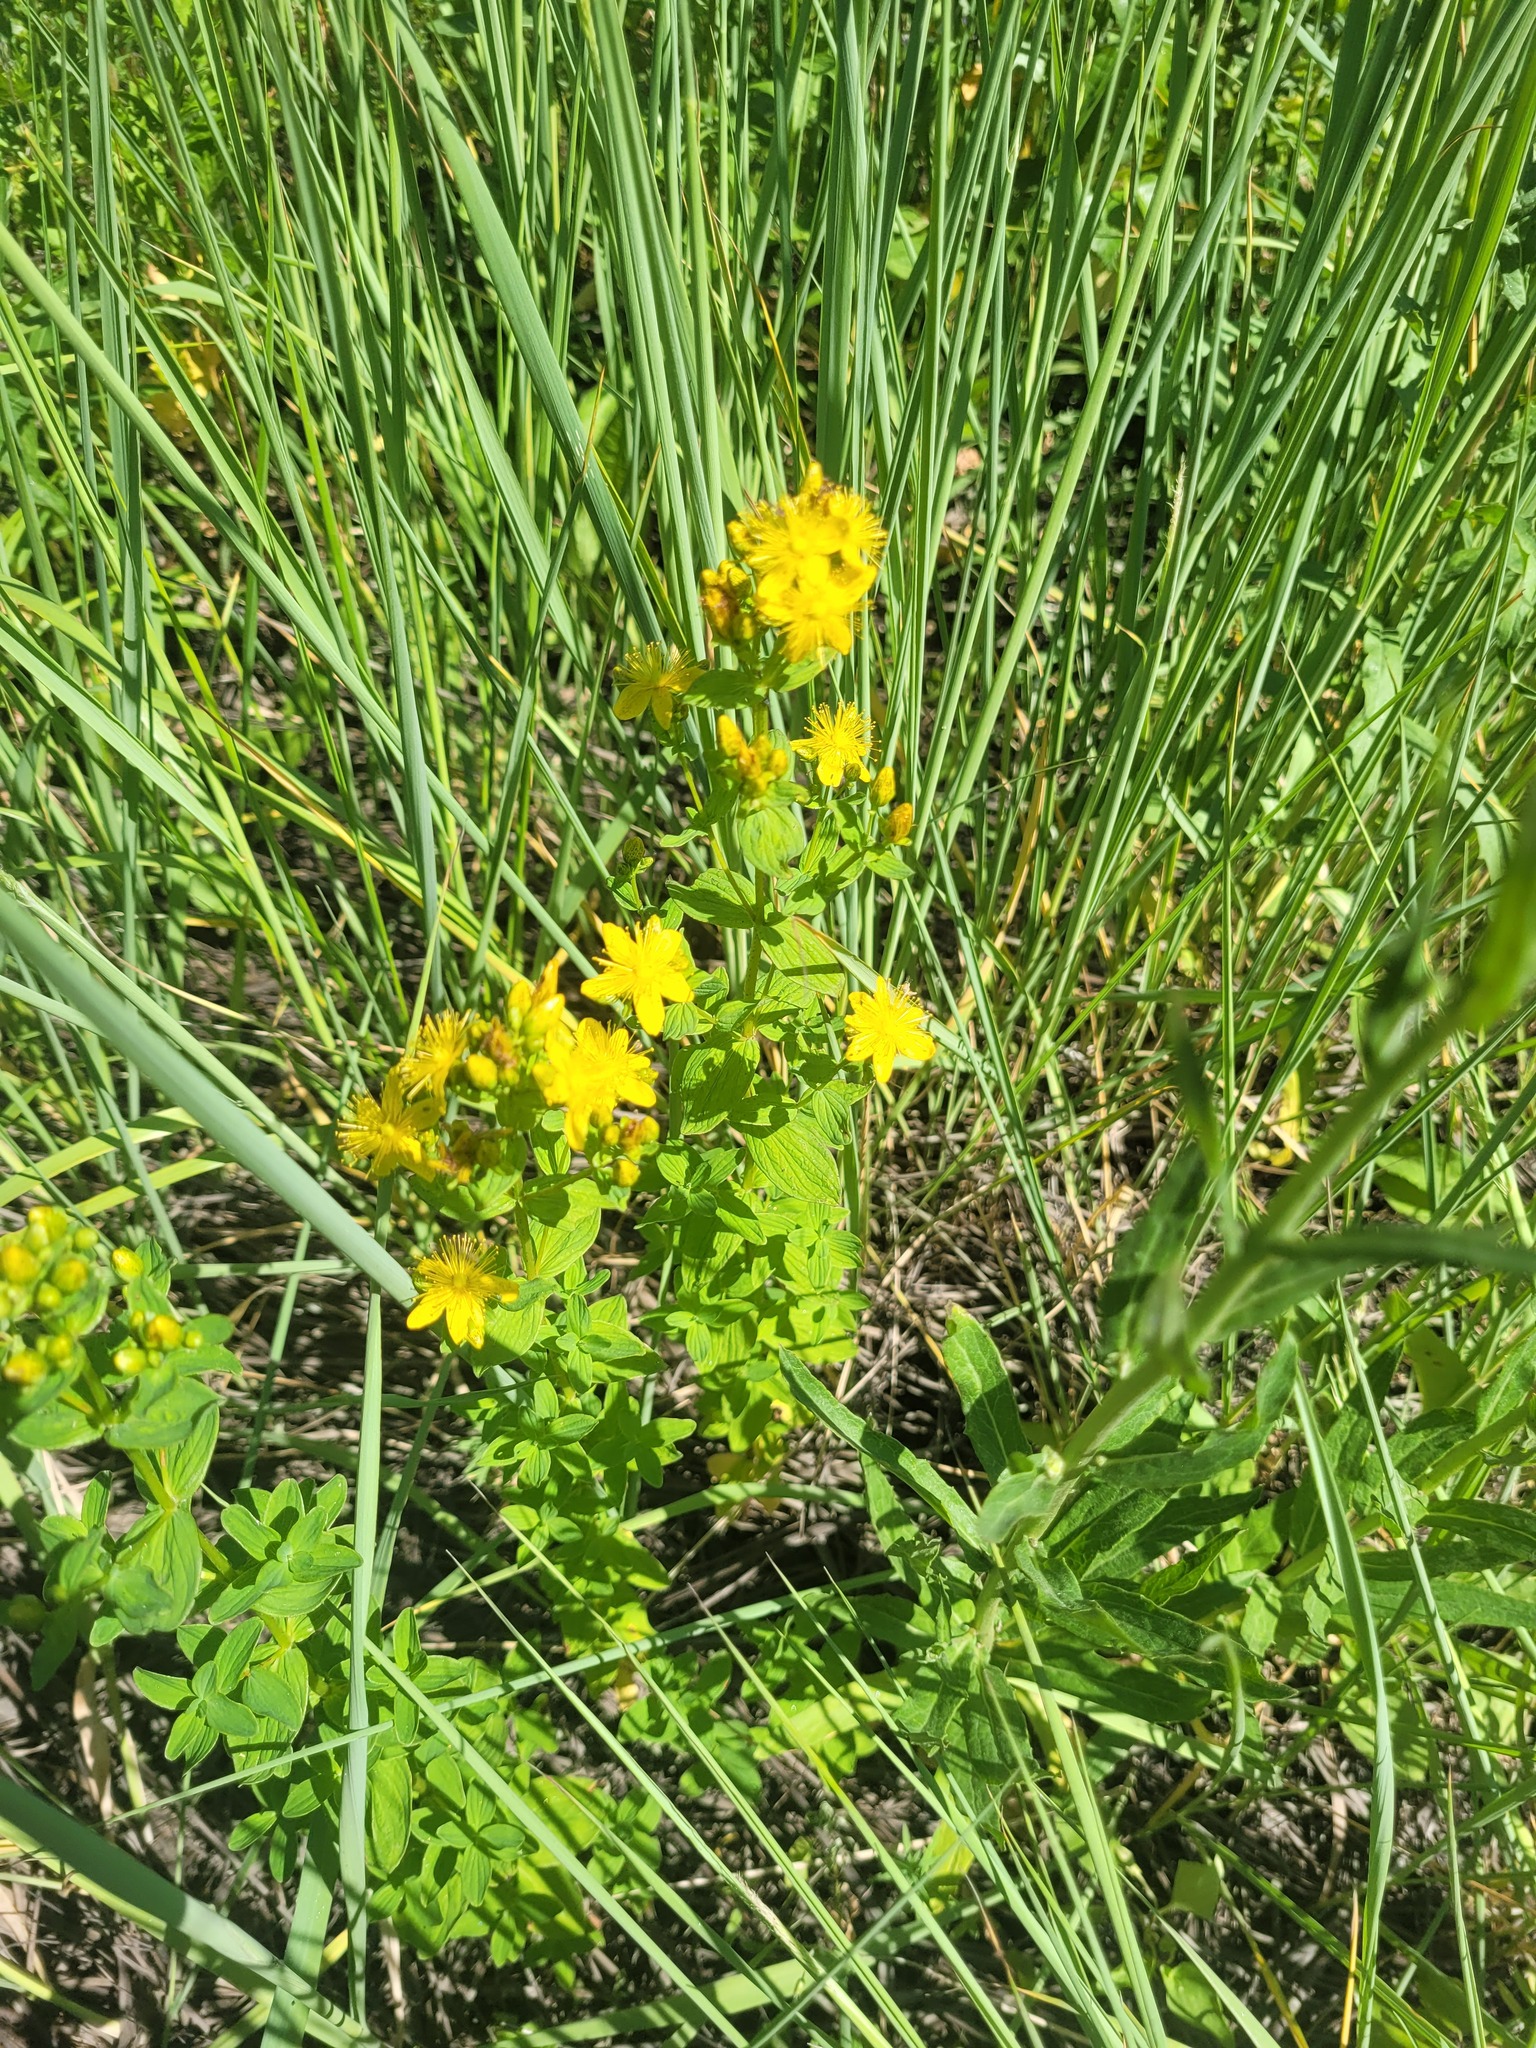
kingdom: Plantae
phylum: Tracheophyta
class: Magnoliopsida
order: Malpighiales
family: Hypericaceae
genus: Hypericum
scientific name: Hypericum maculatum
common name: Imperforate st. john's-wort
